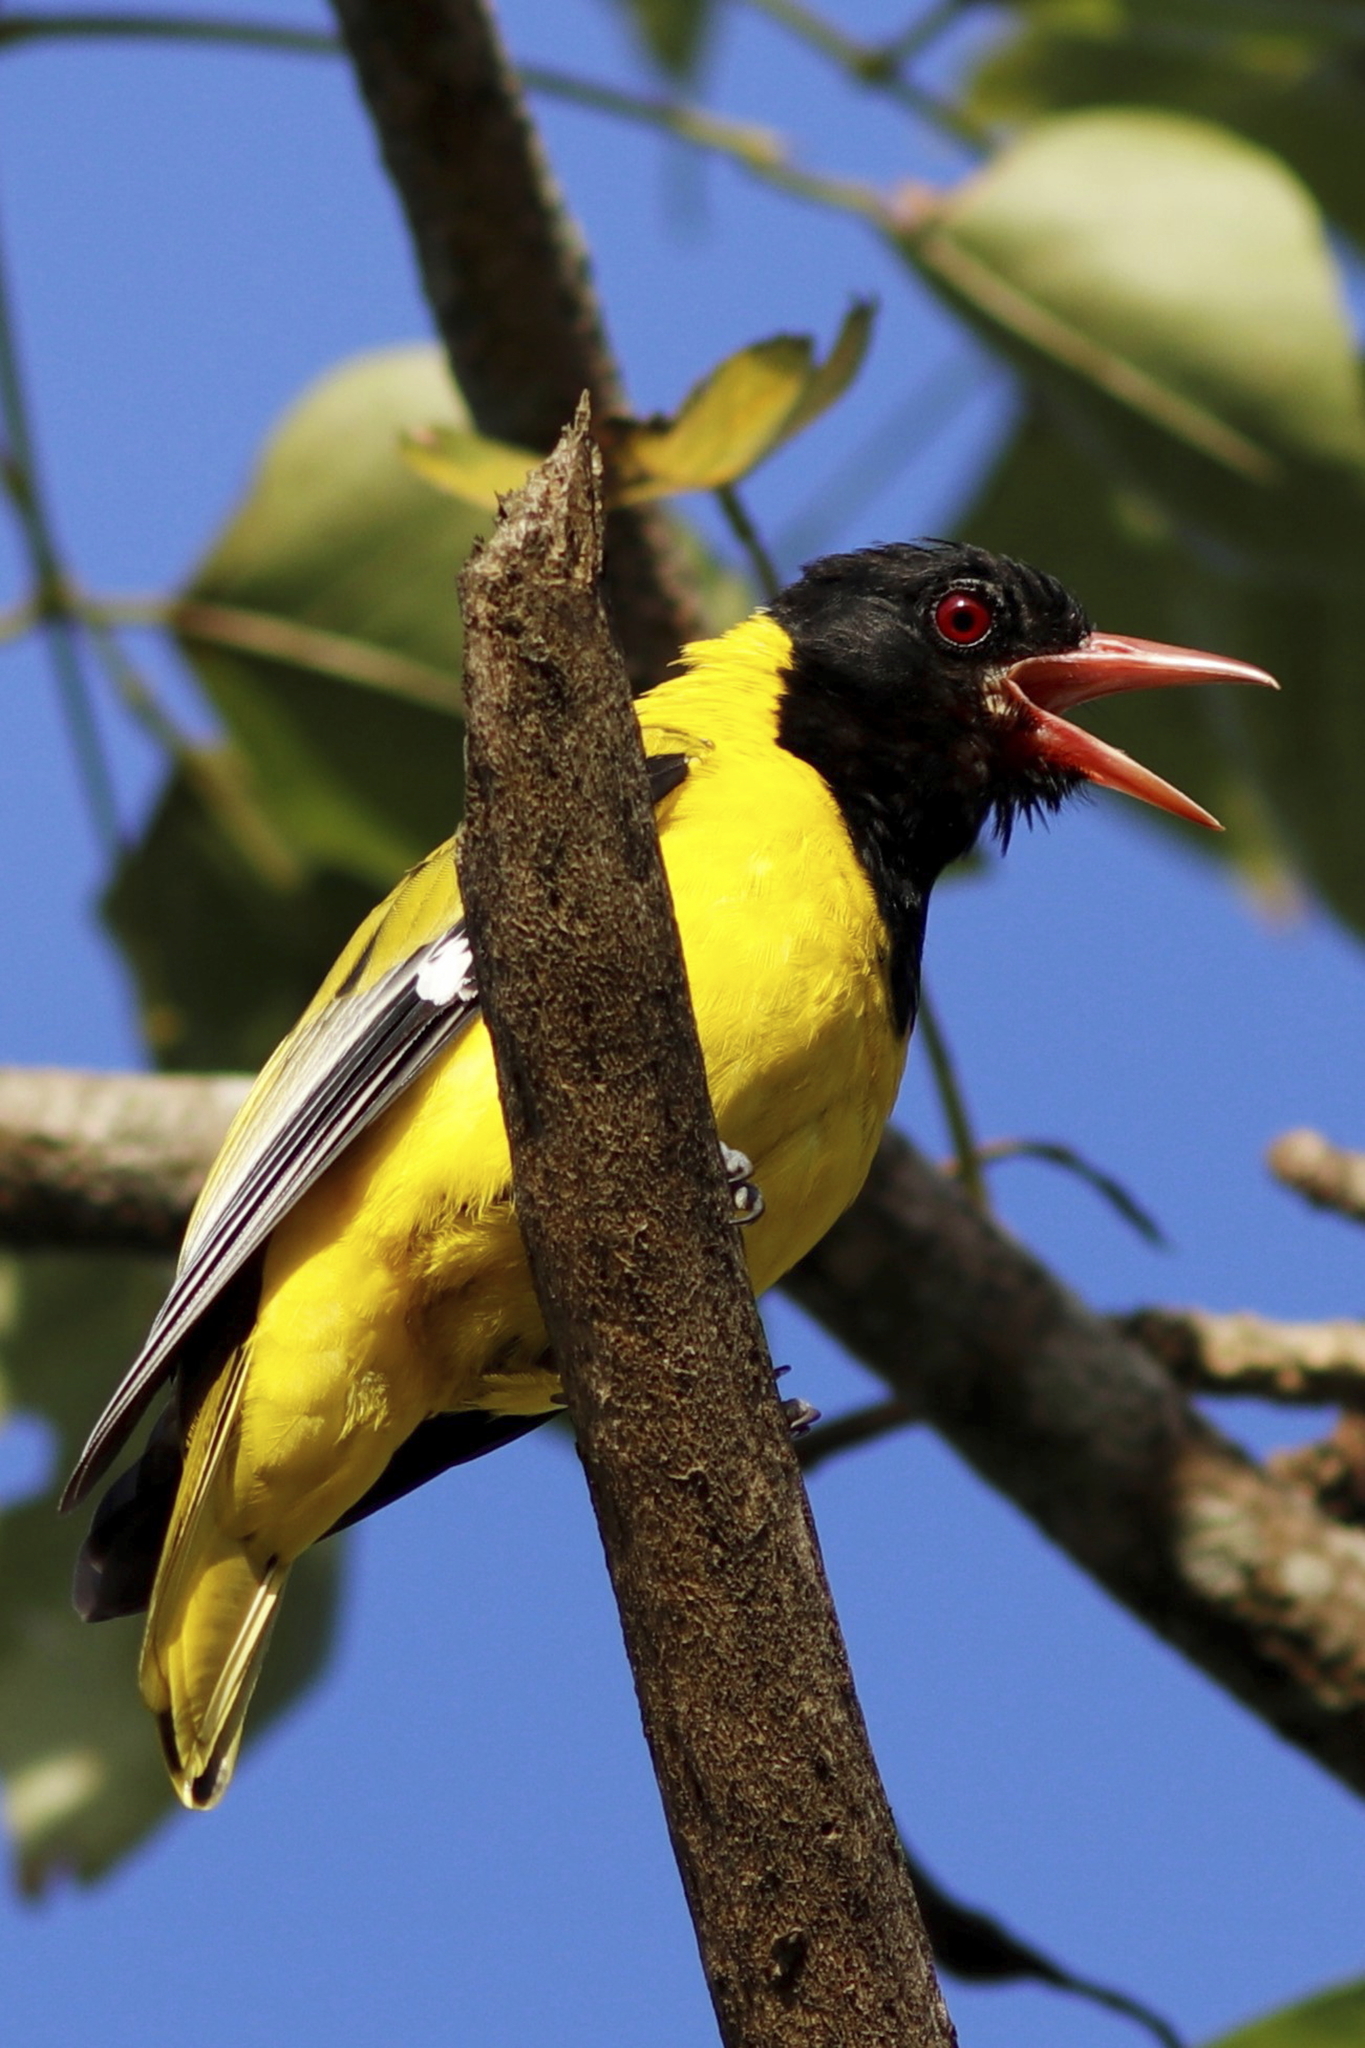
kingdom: Animalia
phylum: Chordata
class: Aves
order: Passeriformes
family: Oriolidae
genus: Oriolus
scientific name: Oriolus larvatus
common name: Black-headed oriole
